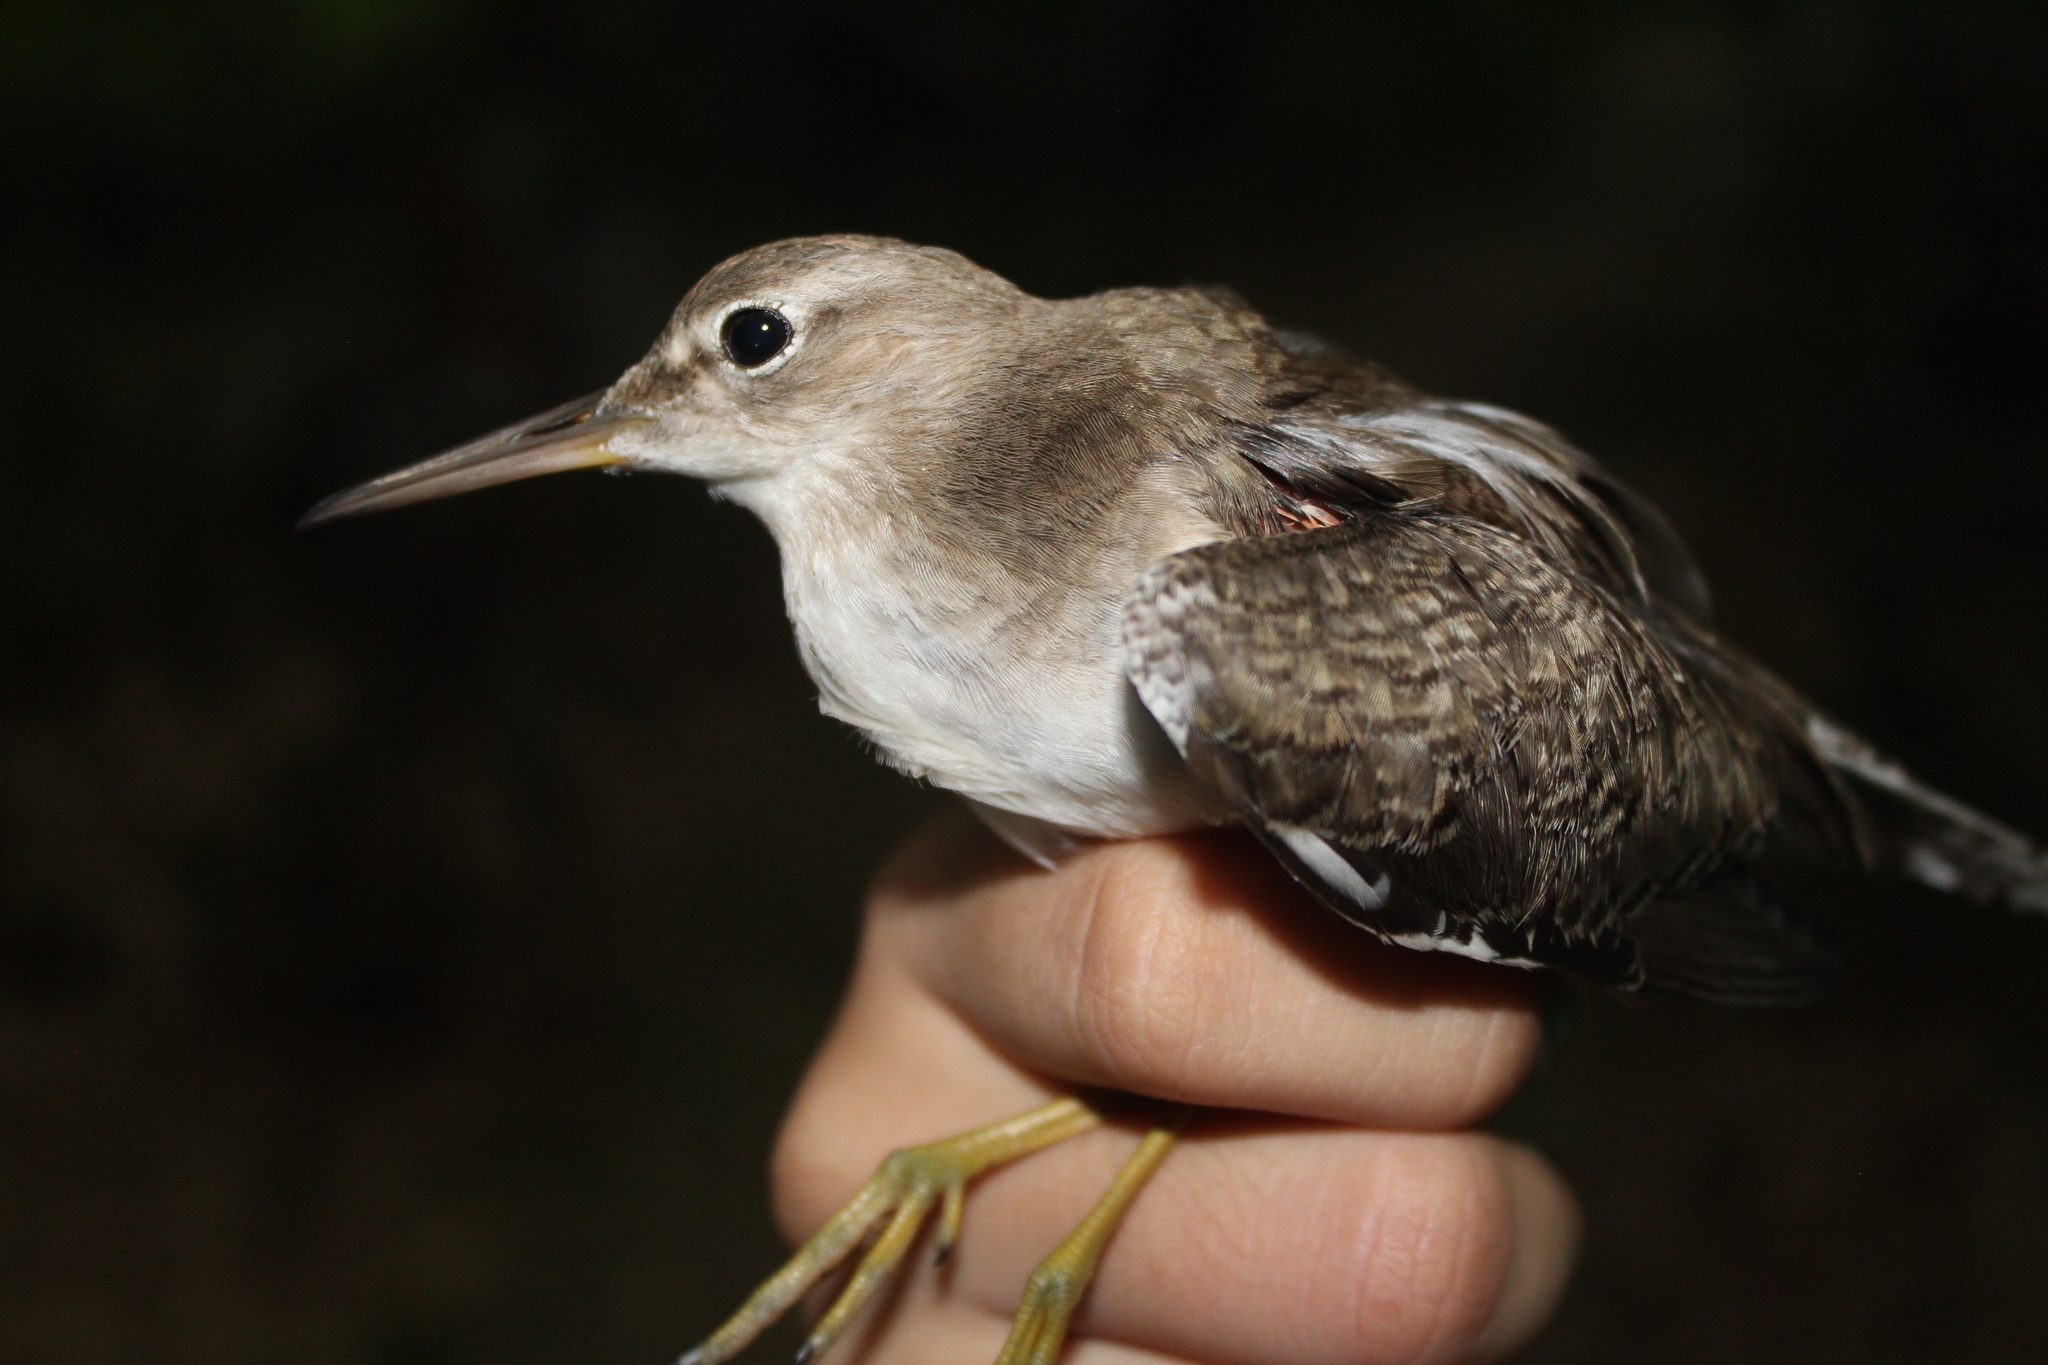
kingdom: Animalia
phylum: Chordata
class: Aves
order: Charadriiformes
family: Scolopacidae
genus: Actitis
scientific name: Actitis macularius
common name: Spotted sandpiper
